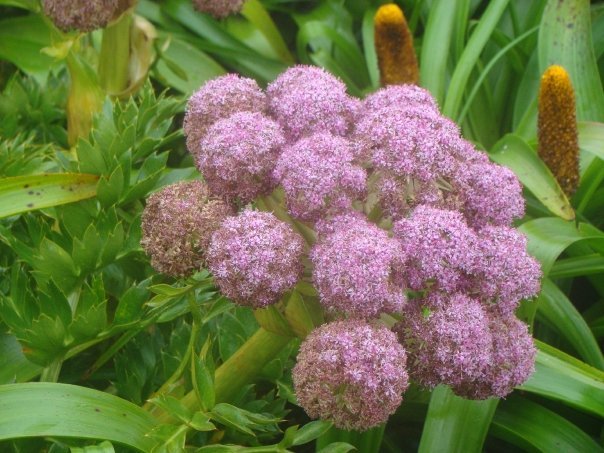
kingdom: Plantae
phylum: Tracheophyta
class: Magnoliopsida
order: Apiales
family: Apiaceae
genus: Anisotome
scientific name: Anisotome latifolia
